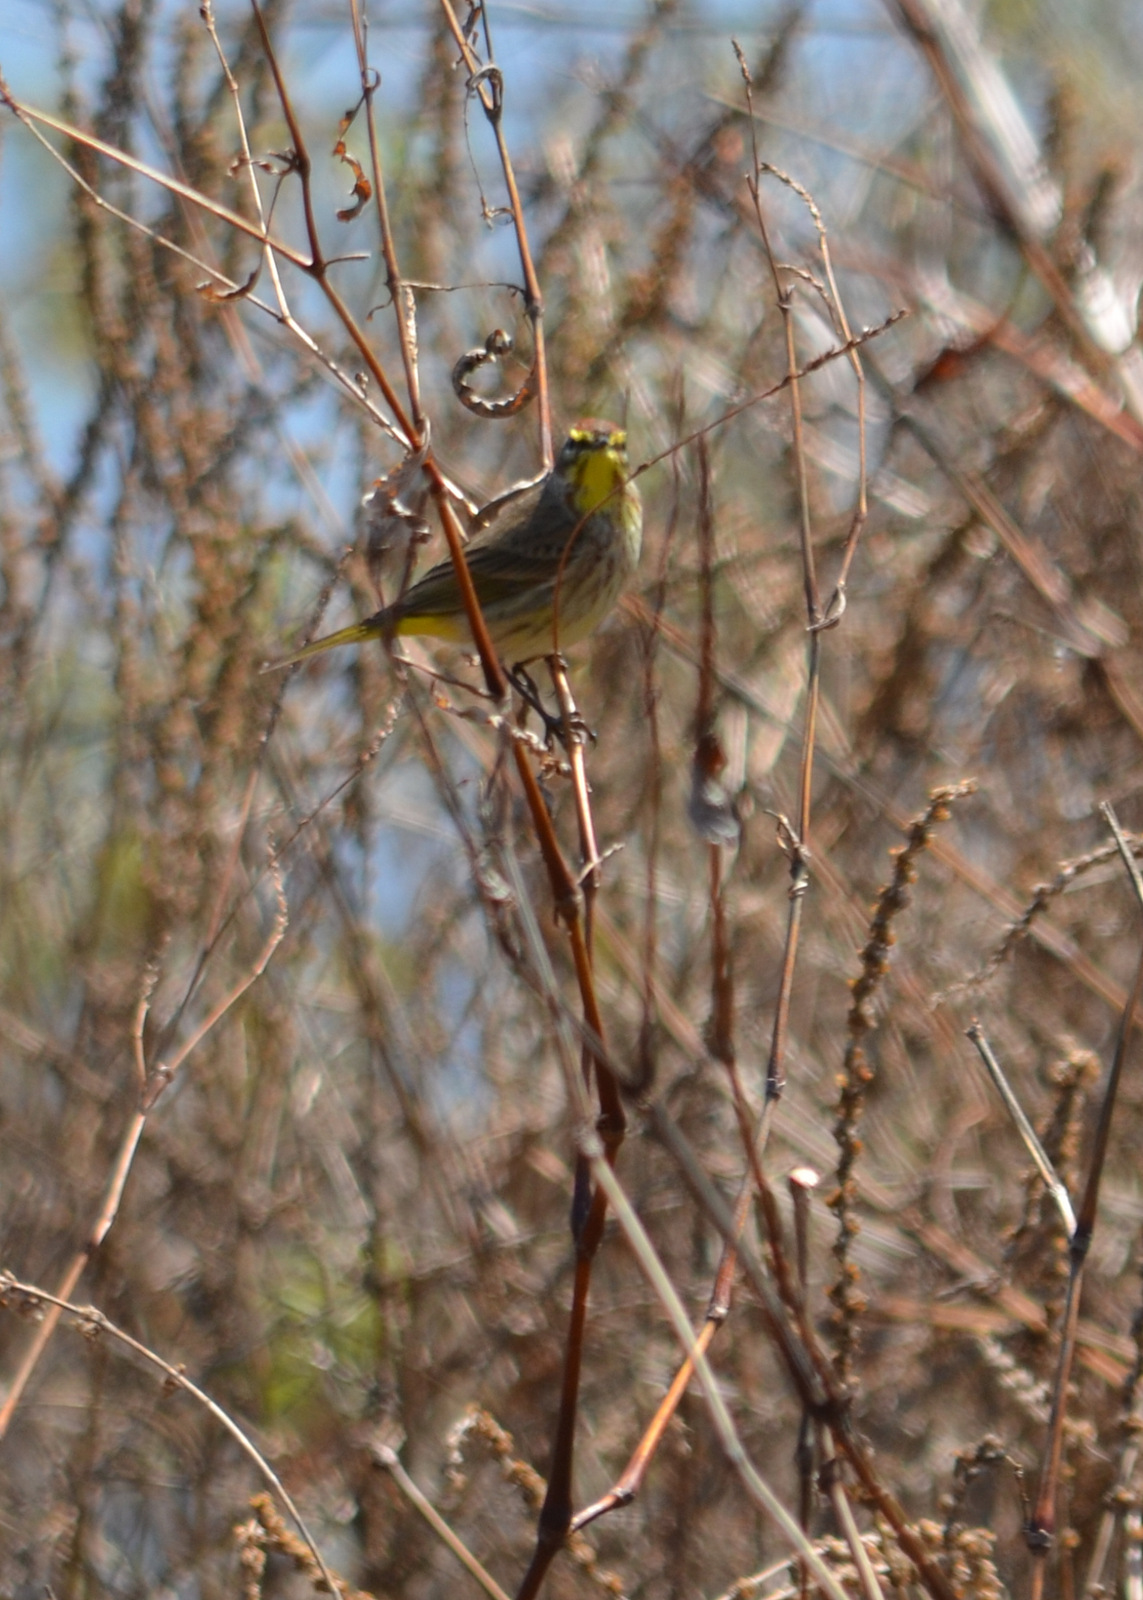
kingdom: Animalia
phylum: Chordata
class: Aves
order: Passeriformes
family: Parulidae
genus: Setophaga
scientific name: Setophaga palmarum
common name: Palm warbler
